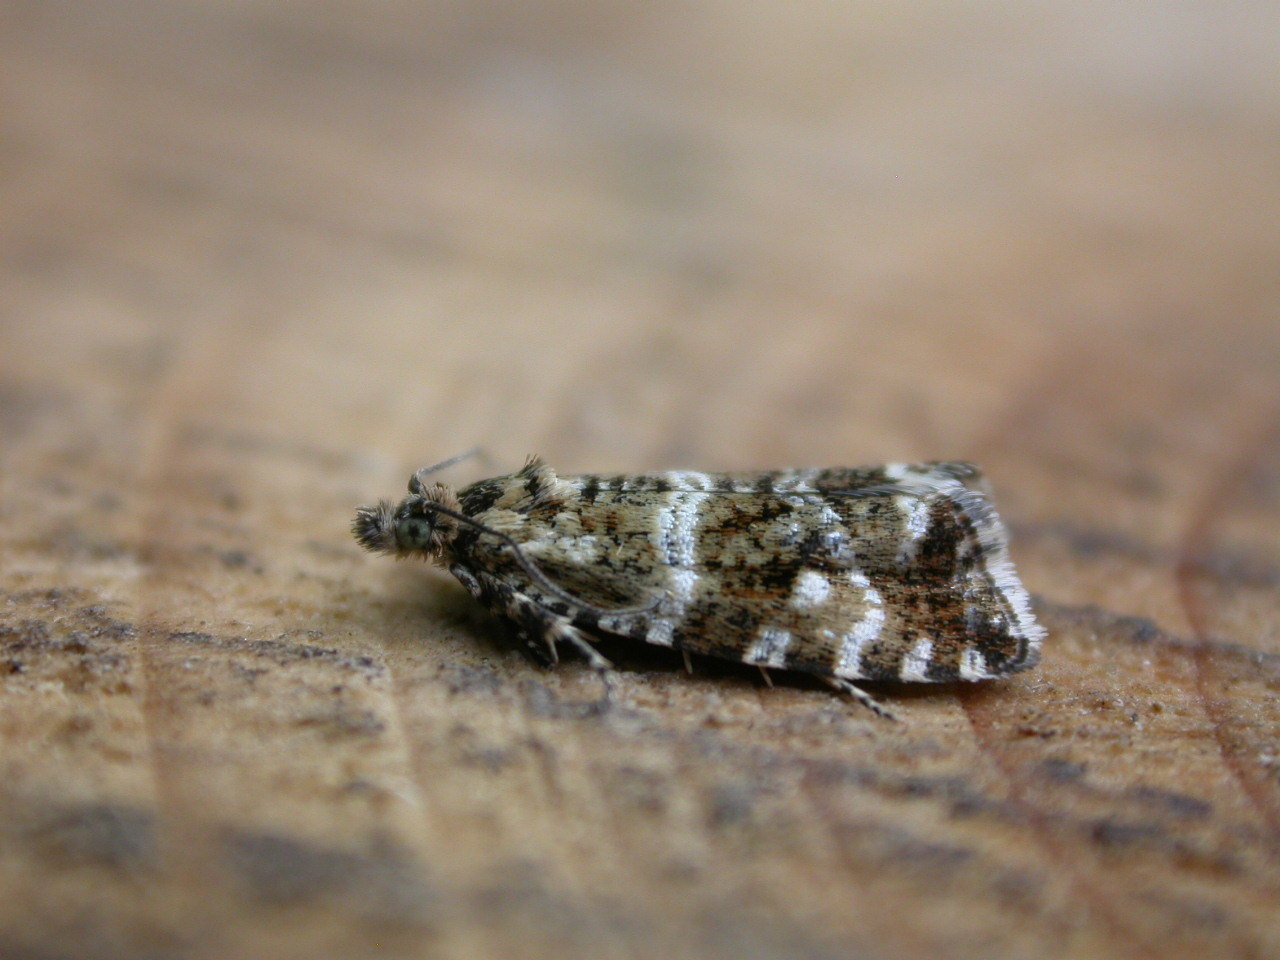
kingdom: Animalia
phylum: Arthropoda
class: Insecta
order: Lepidoptera
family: Tortricidae
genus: Olethreutes
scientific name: Olethreutes palustrana
